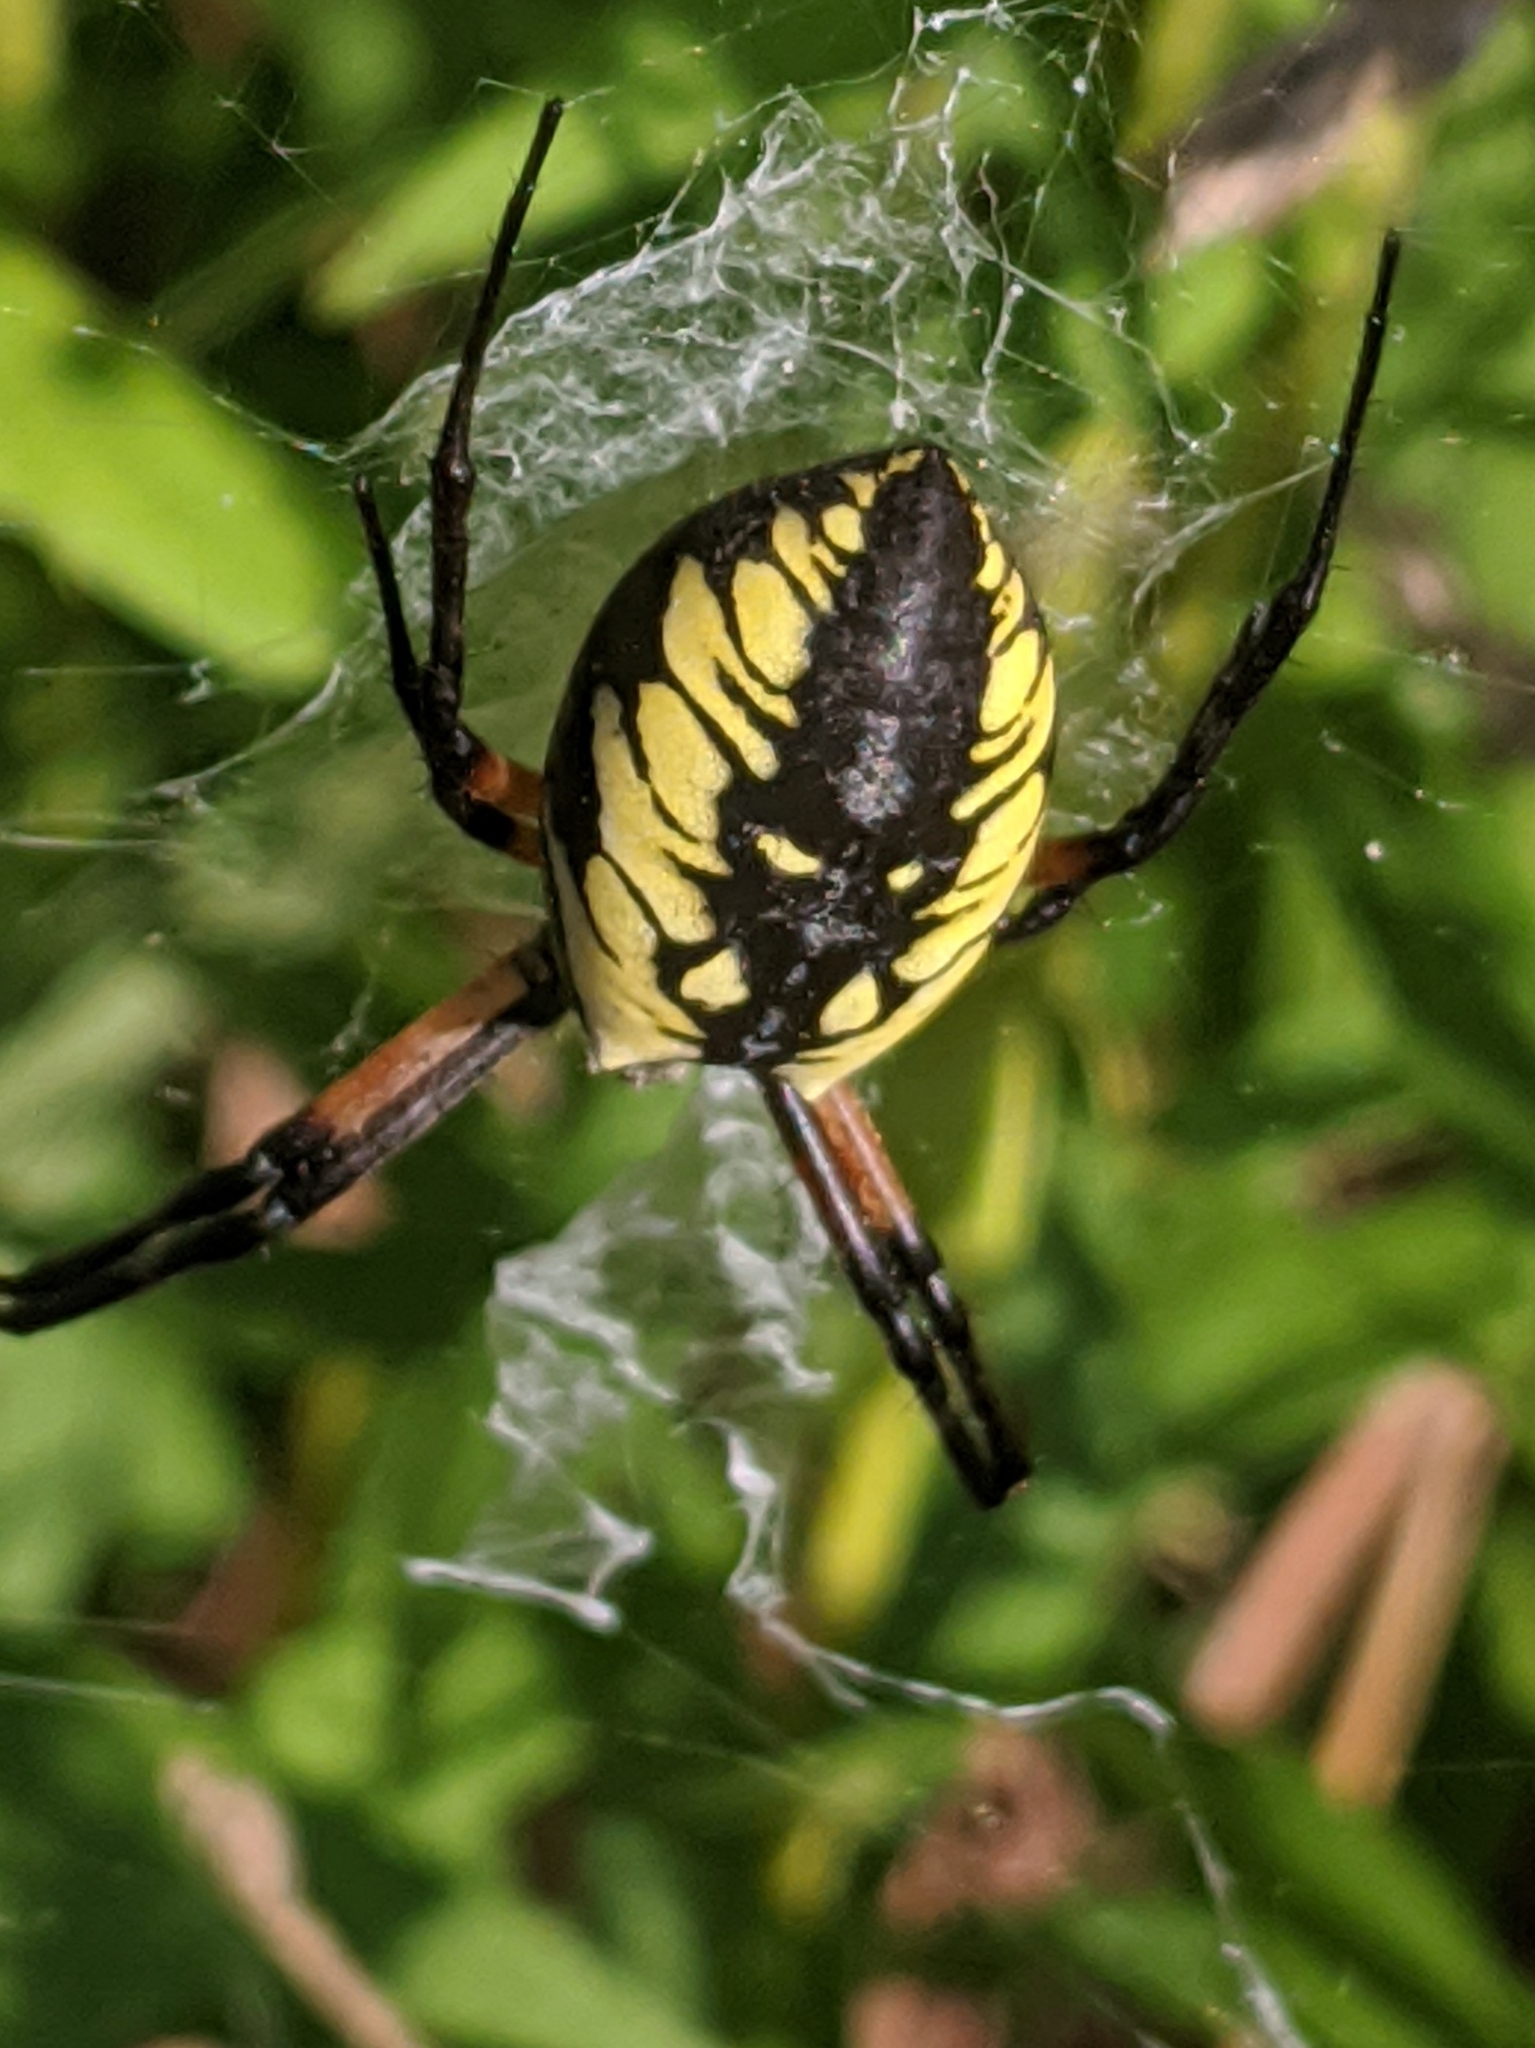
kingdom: Animalia
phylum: Arthropoda
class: Arachnida
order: Araneae
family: Araneidae
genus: Argiope
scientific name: Argiope aurantia
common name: Orb weavers
